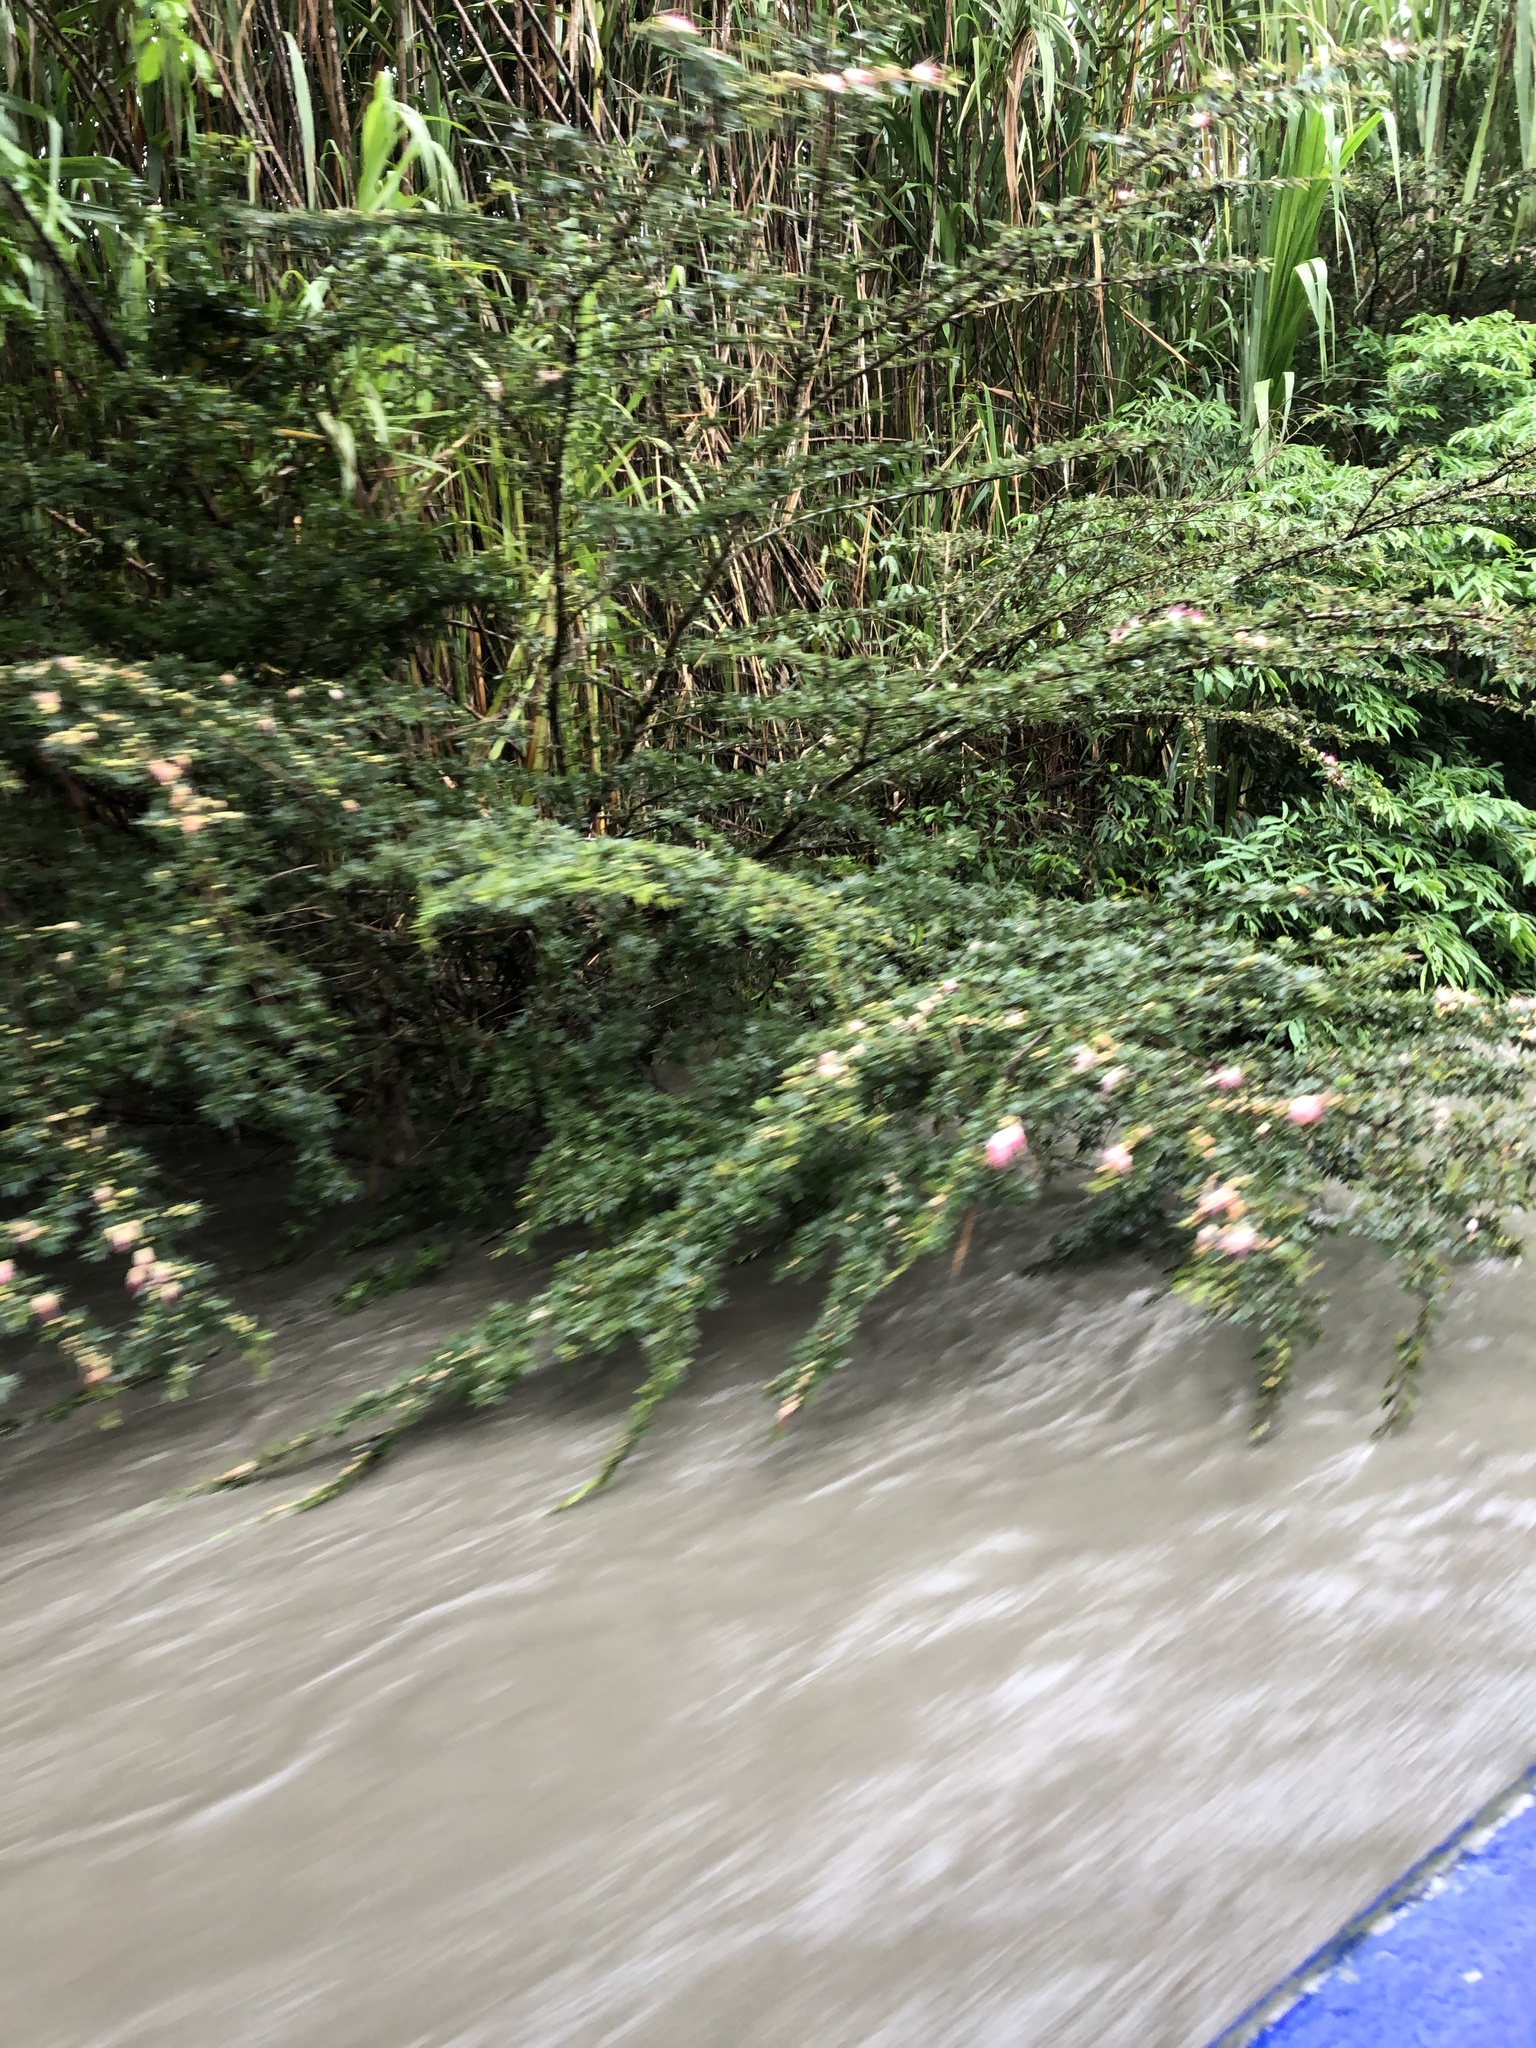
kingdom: Plantae
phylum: Tracheophyta
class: Magnoliopsida
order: Fabales
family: Fabaceae
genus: Calliandra
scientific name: Calliandra angustifolia
